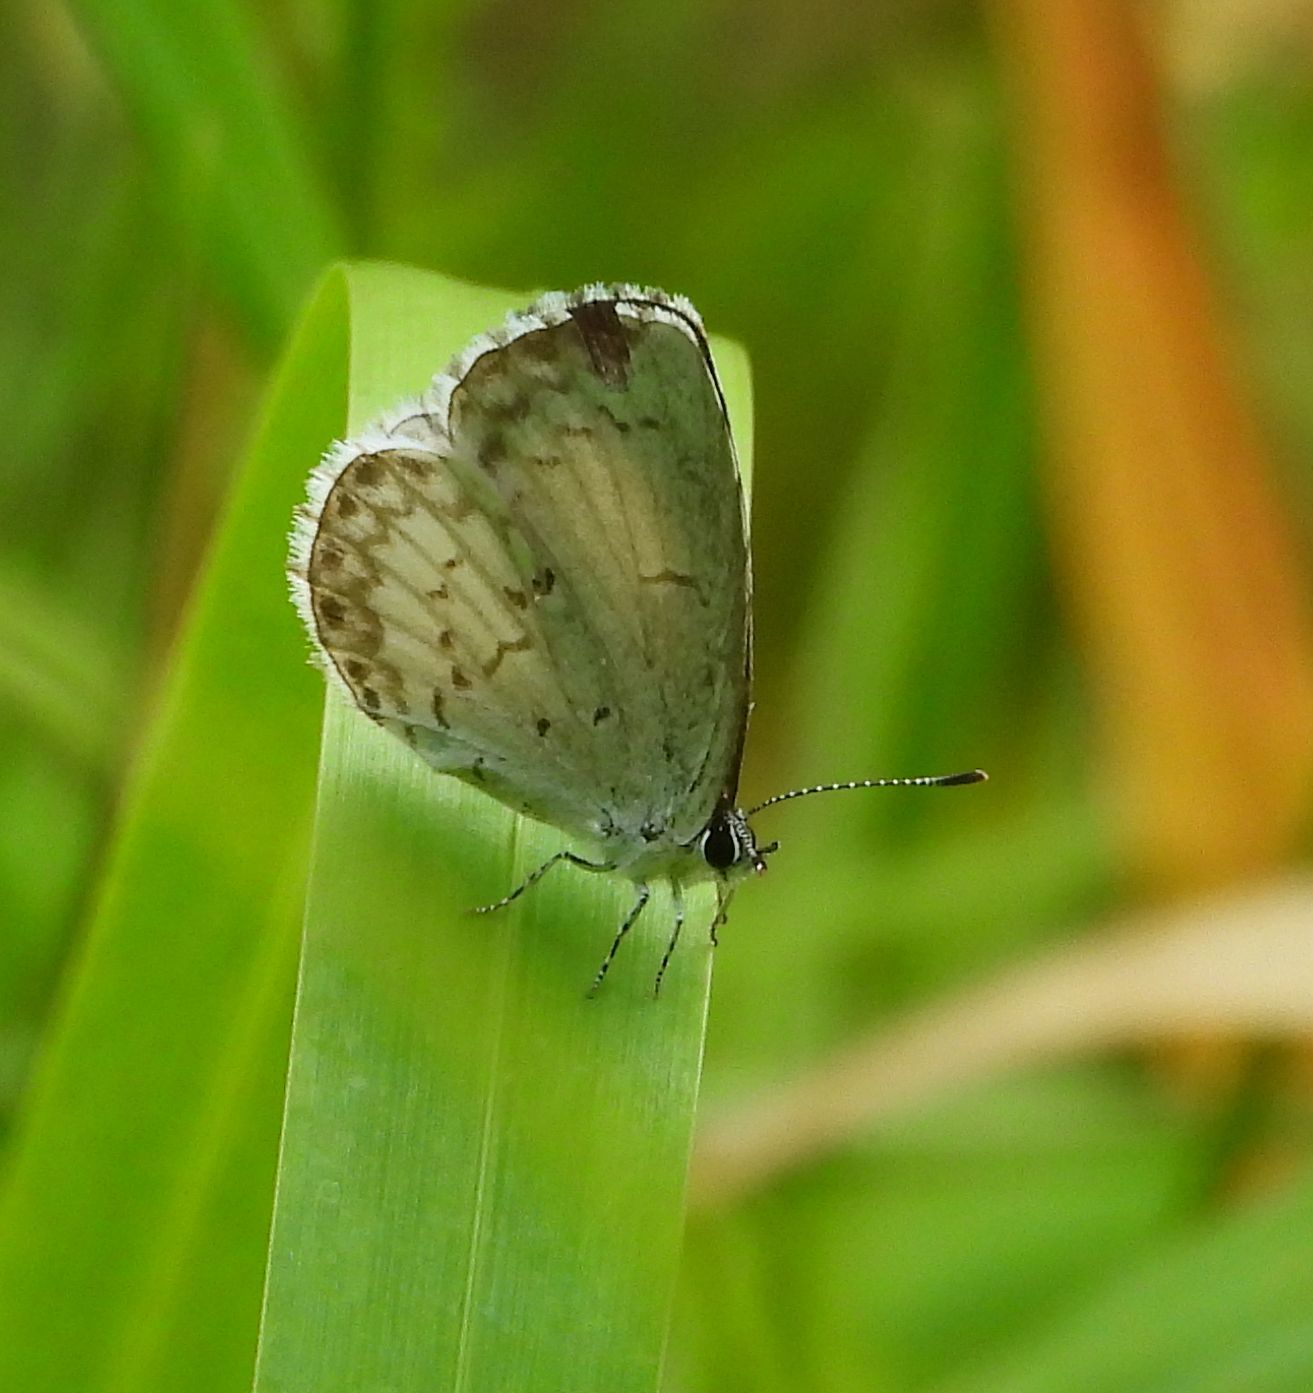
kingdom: Animalia
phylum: Arthropoda
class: Insecta
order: Lepidoptera
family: Lycaenidae
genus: Celastrina
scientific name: Celastrina lucia
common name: Lucia azure
